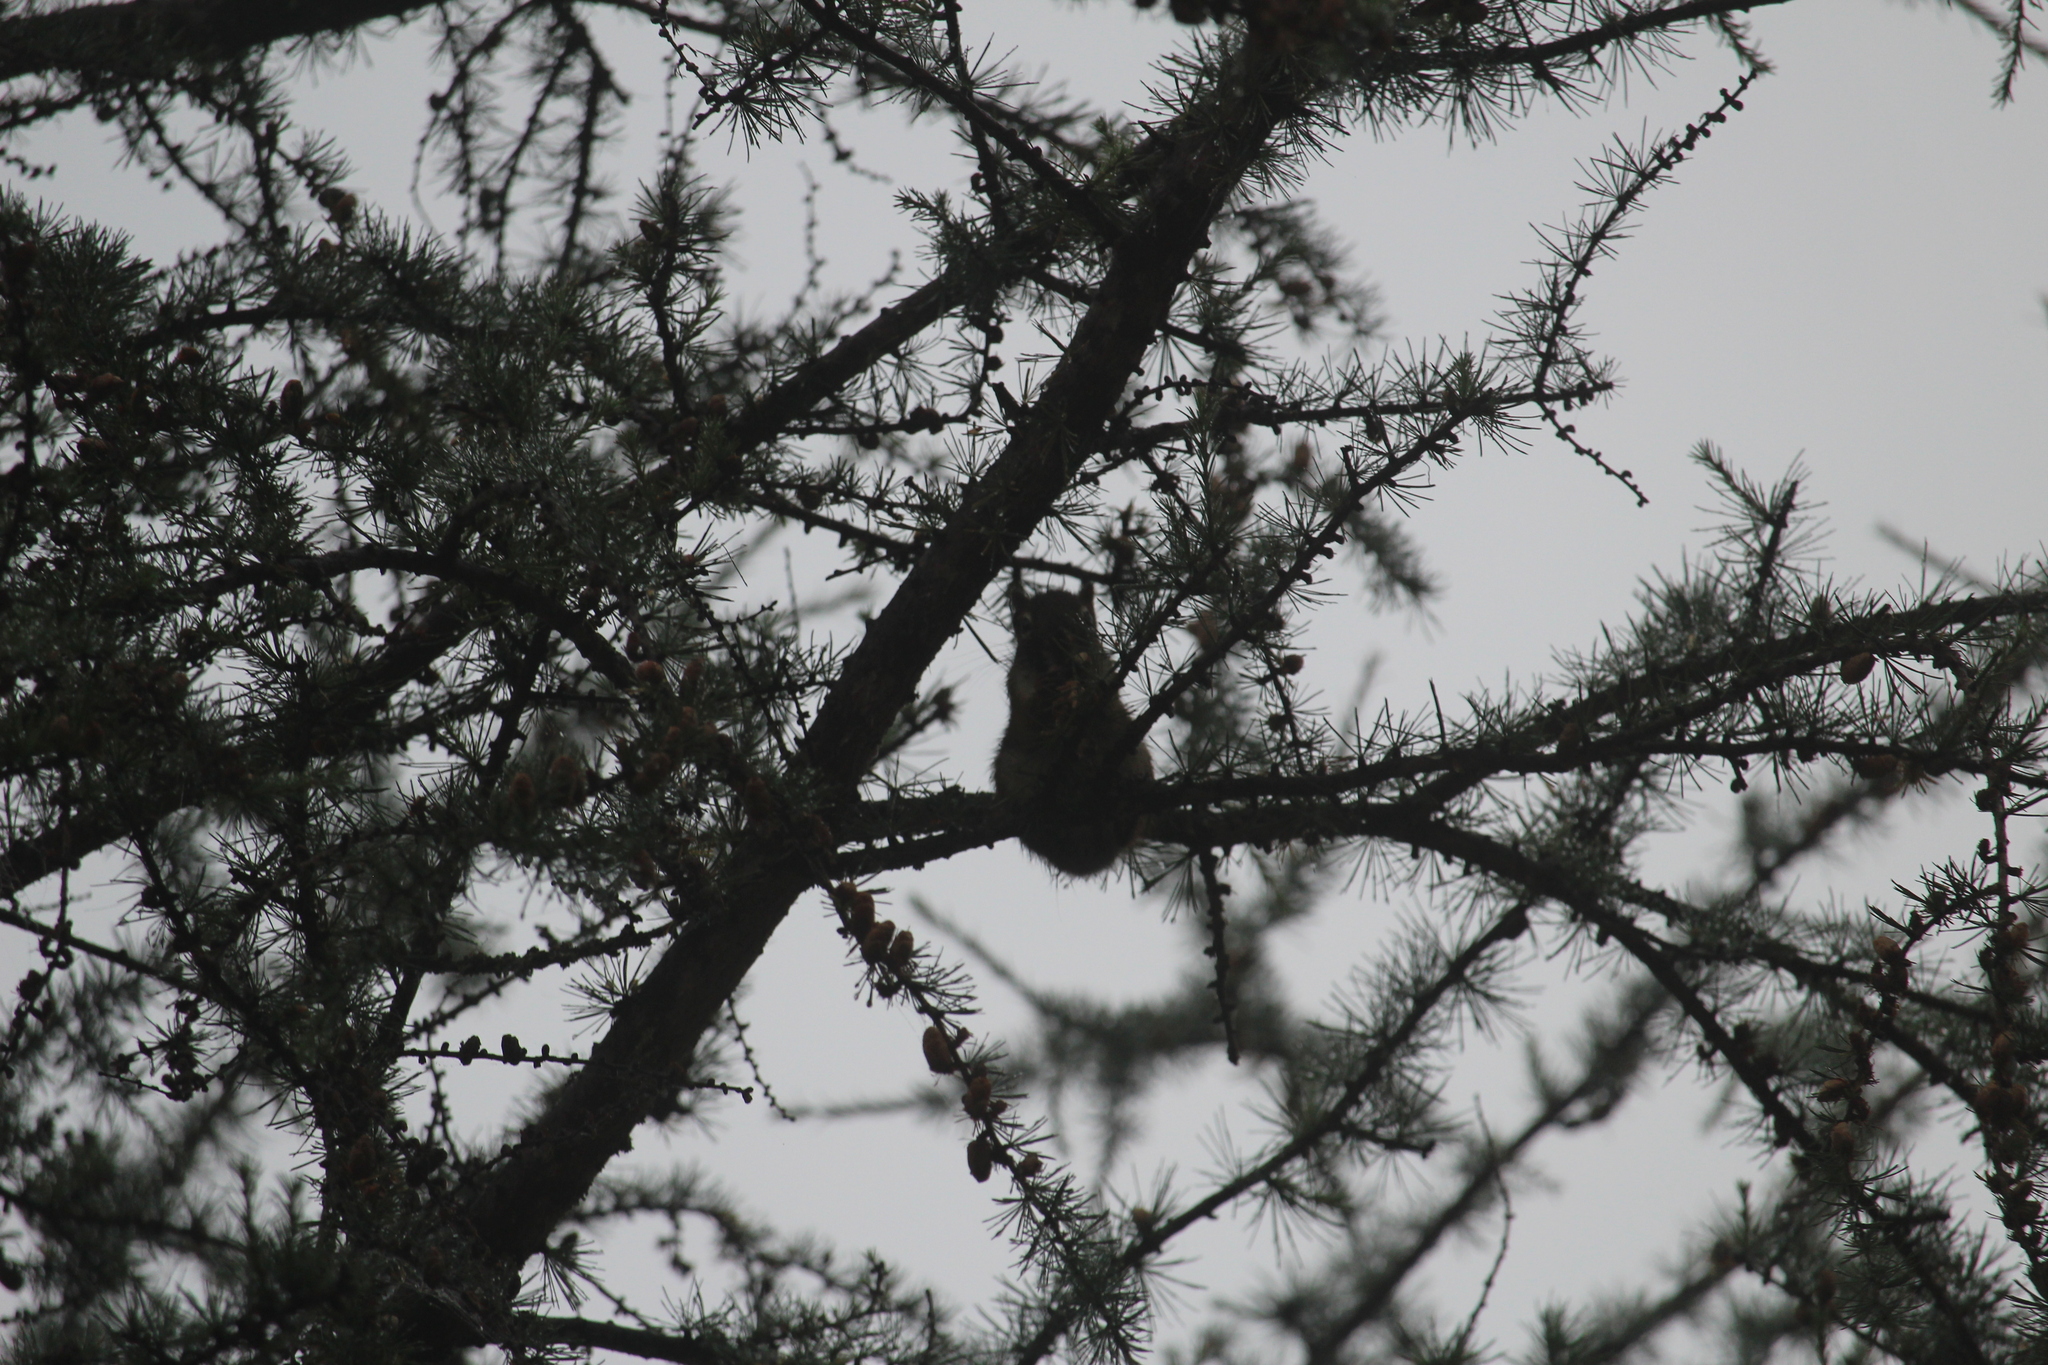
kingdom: Animalia
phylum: Chordata
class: Mammalia
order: Rodentia
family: Sciuridae
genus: Tamiasciurus
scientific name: Tamiasciurus hudsonicus
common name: Red squirrel
